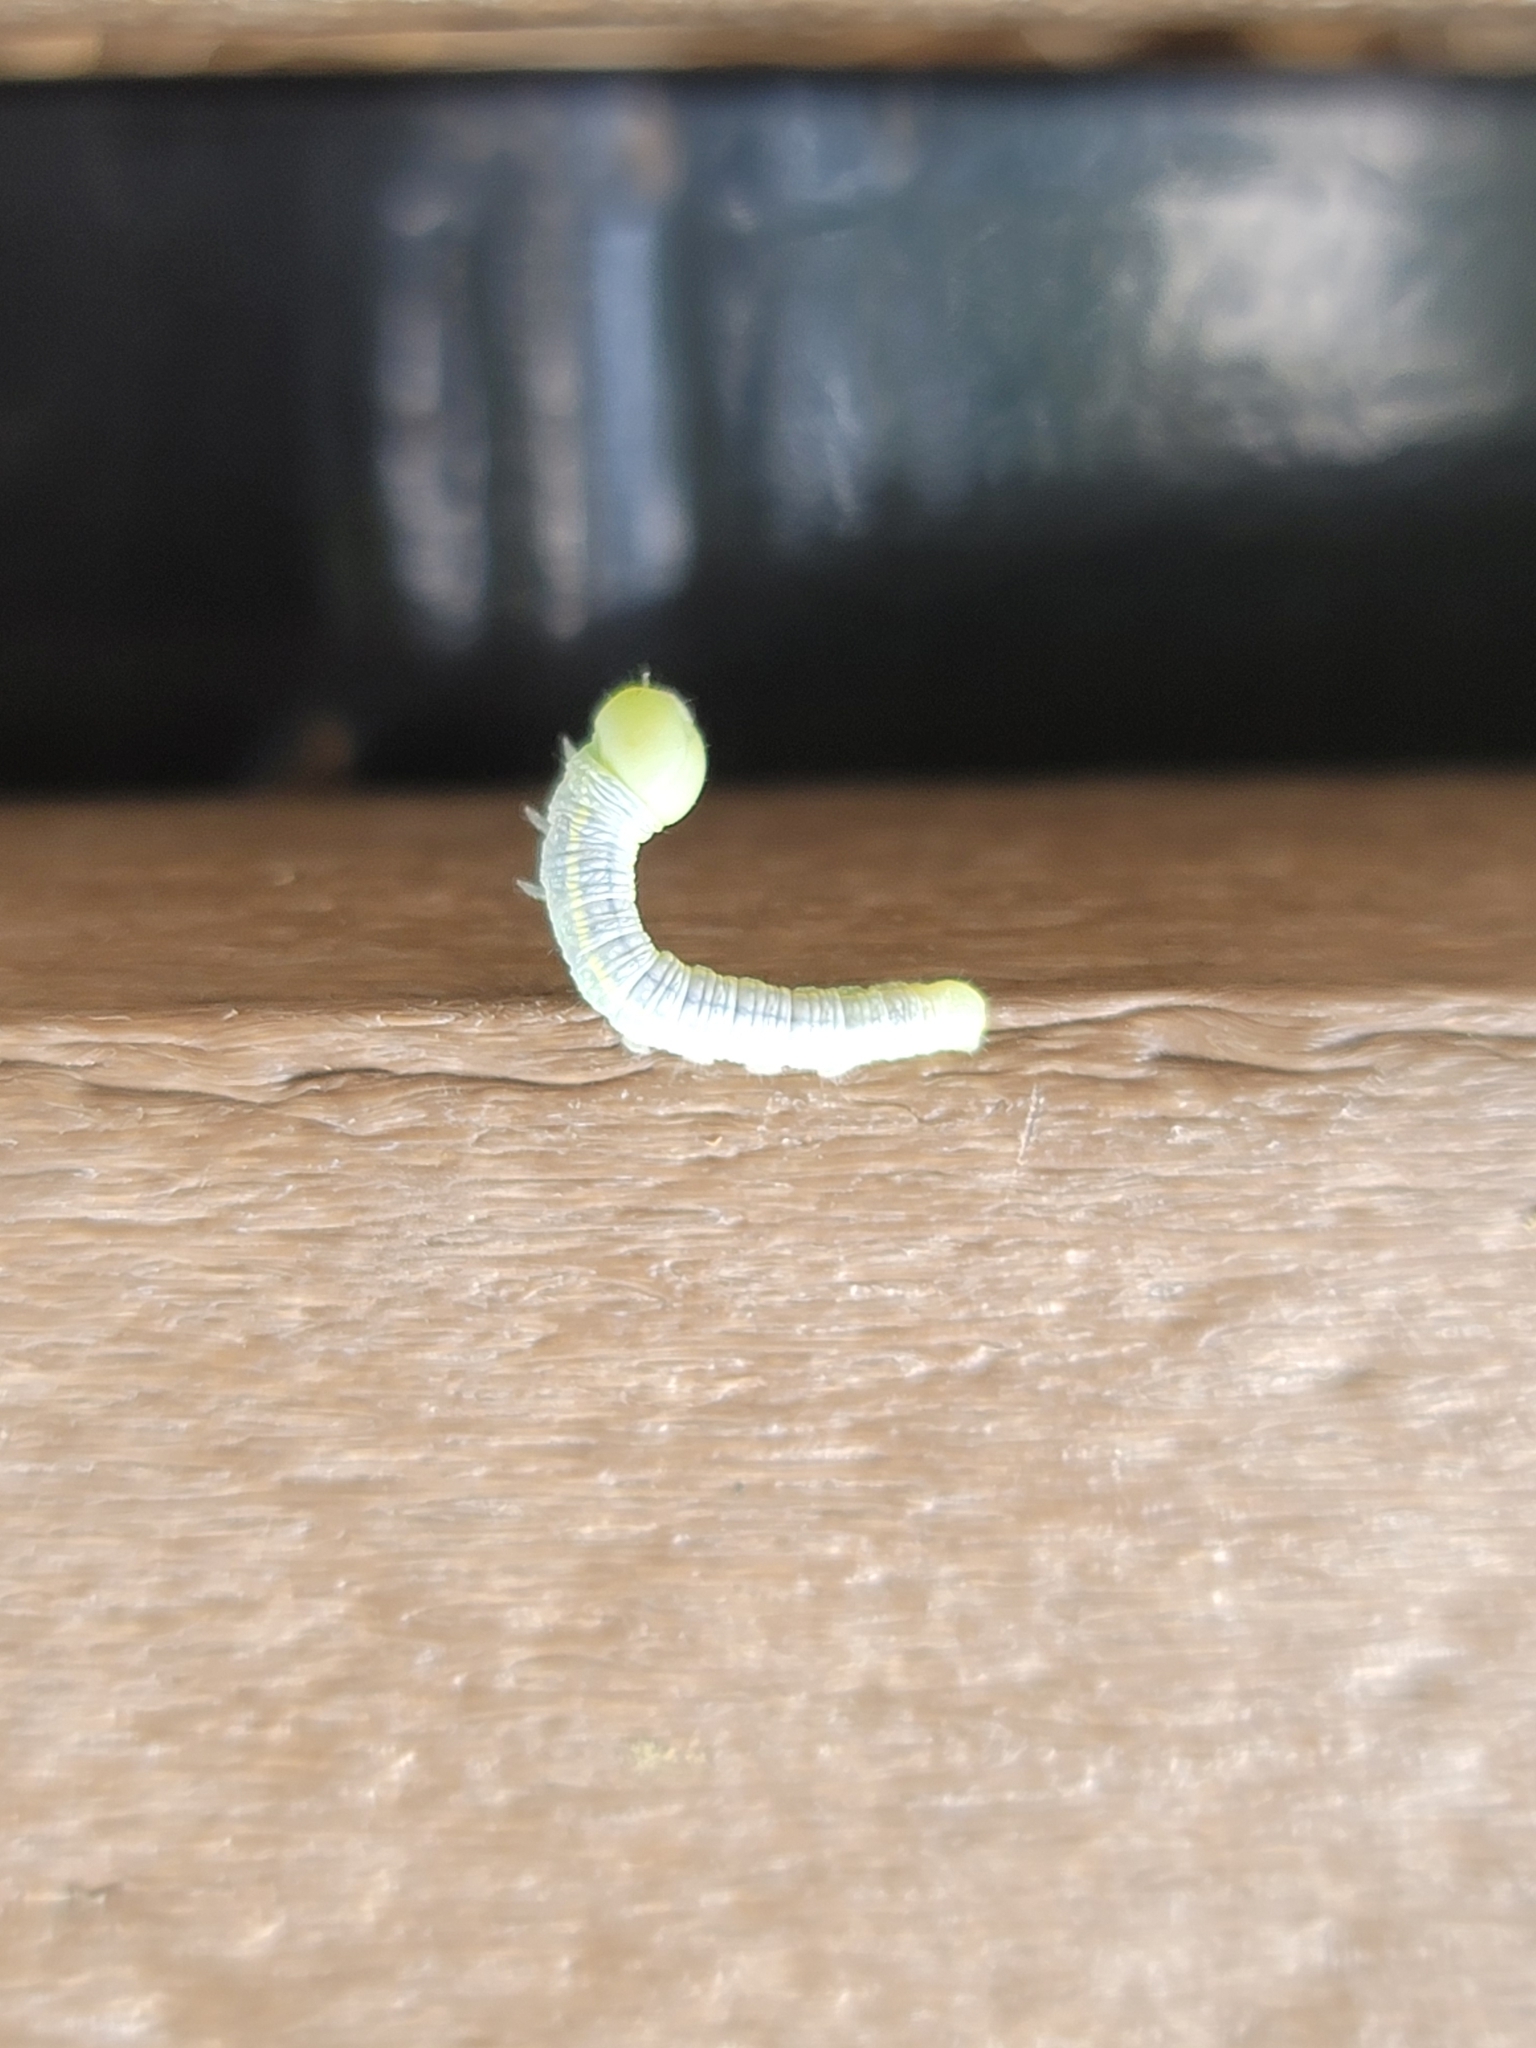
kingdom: Animalia
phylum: Arthropoda
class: Insecta
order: Lepidoptera
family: Notodontidae
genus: Nadata
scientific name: Nadata gibbosa
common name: White-dotted prominent
